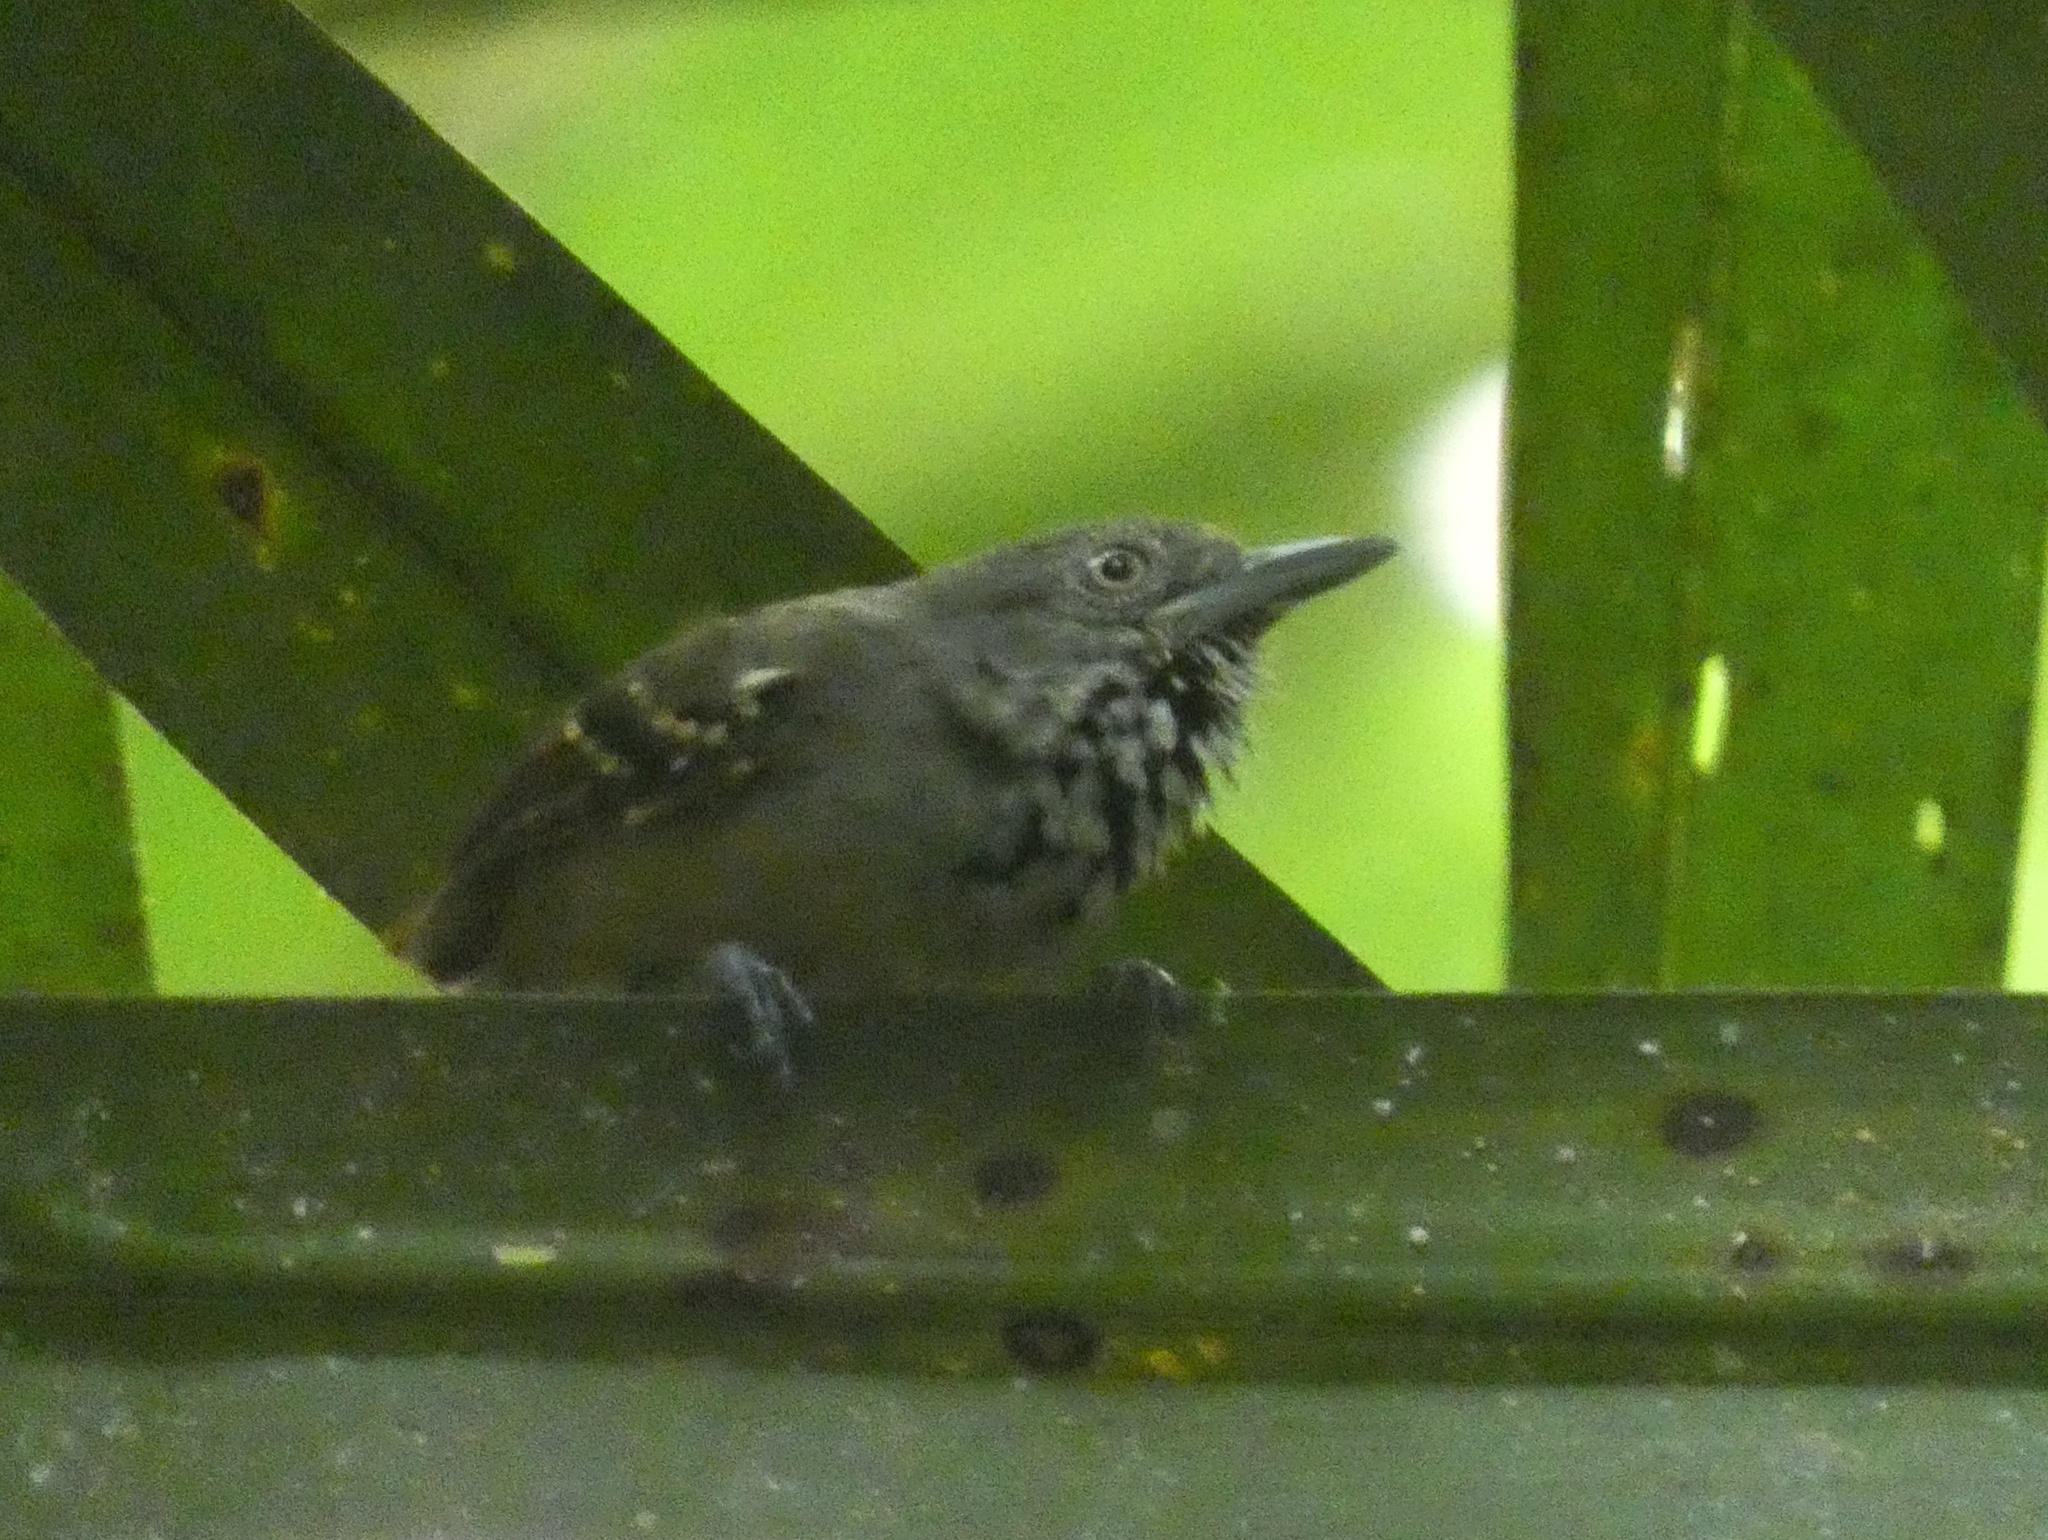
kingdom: Animalia
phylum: Chordata
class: Aves
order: Passeriformes
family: Thamnophilidae
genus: Epinecrophylla
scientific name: Epinecrophylla fulviventris
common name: Checker-throated antwren
